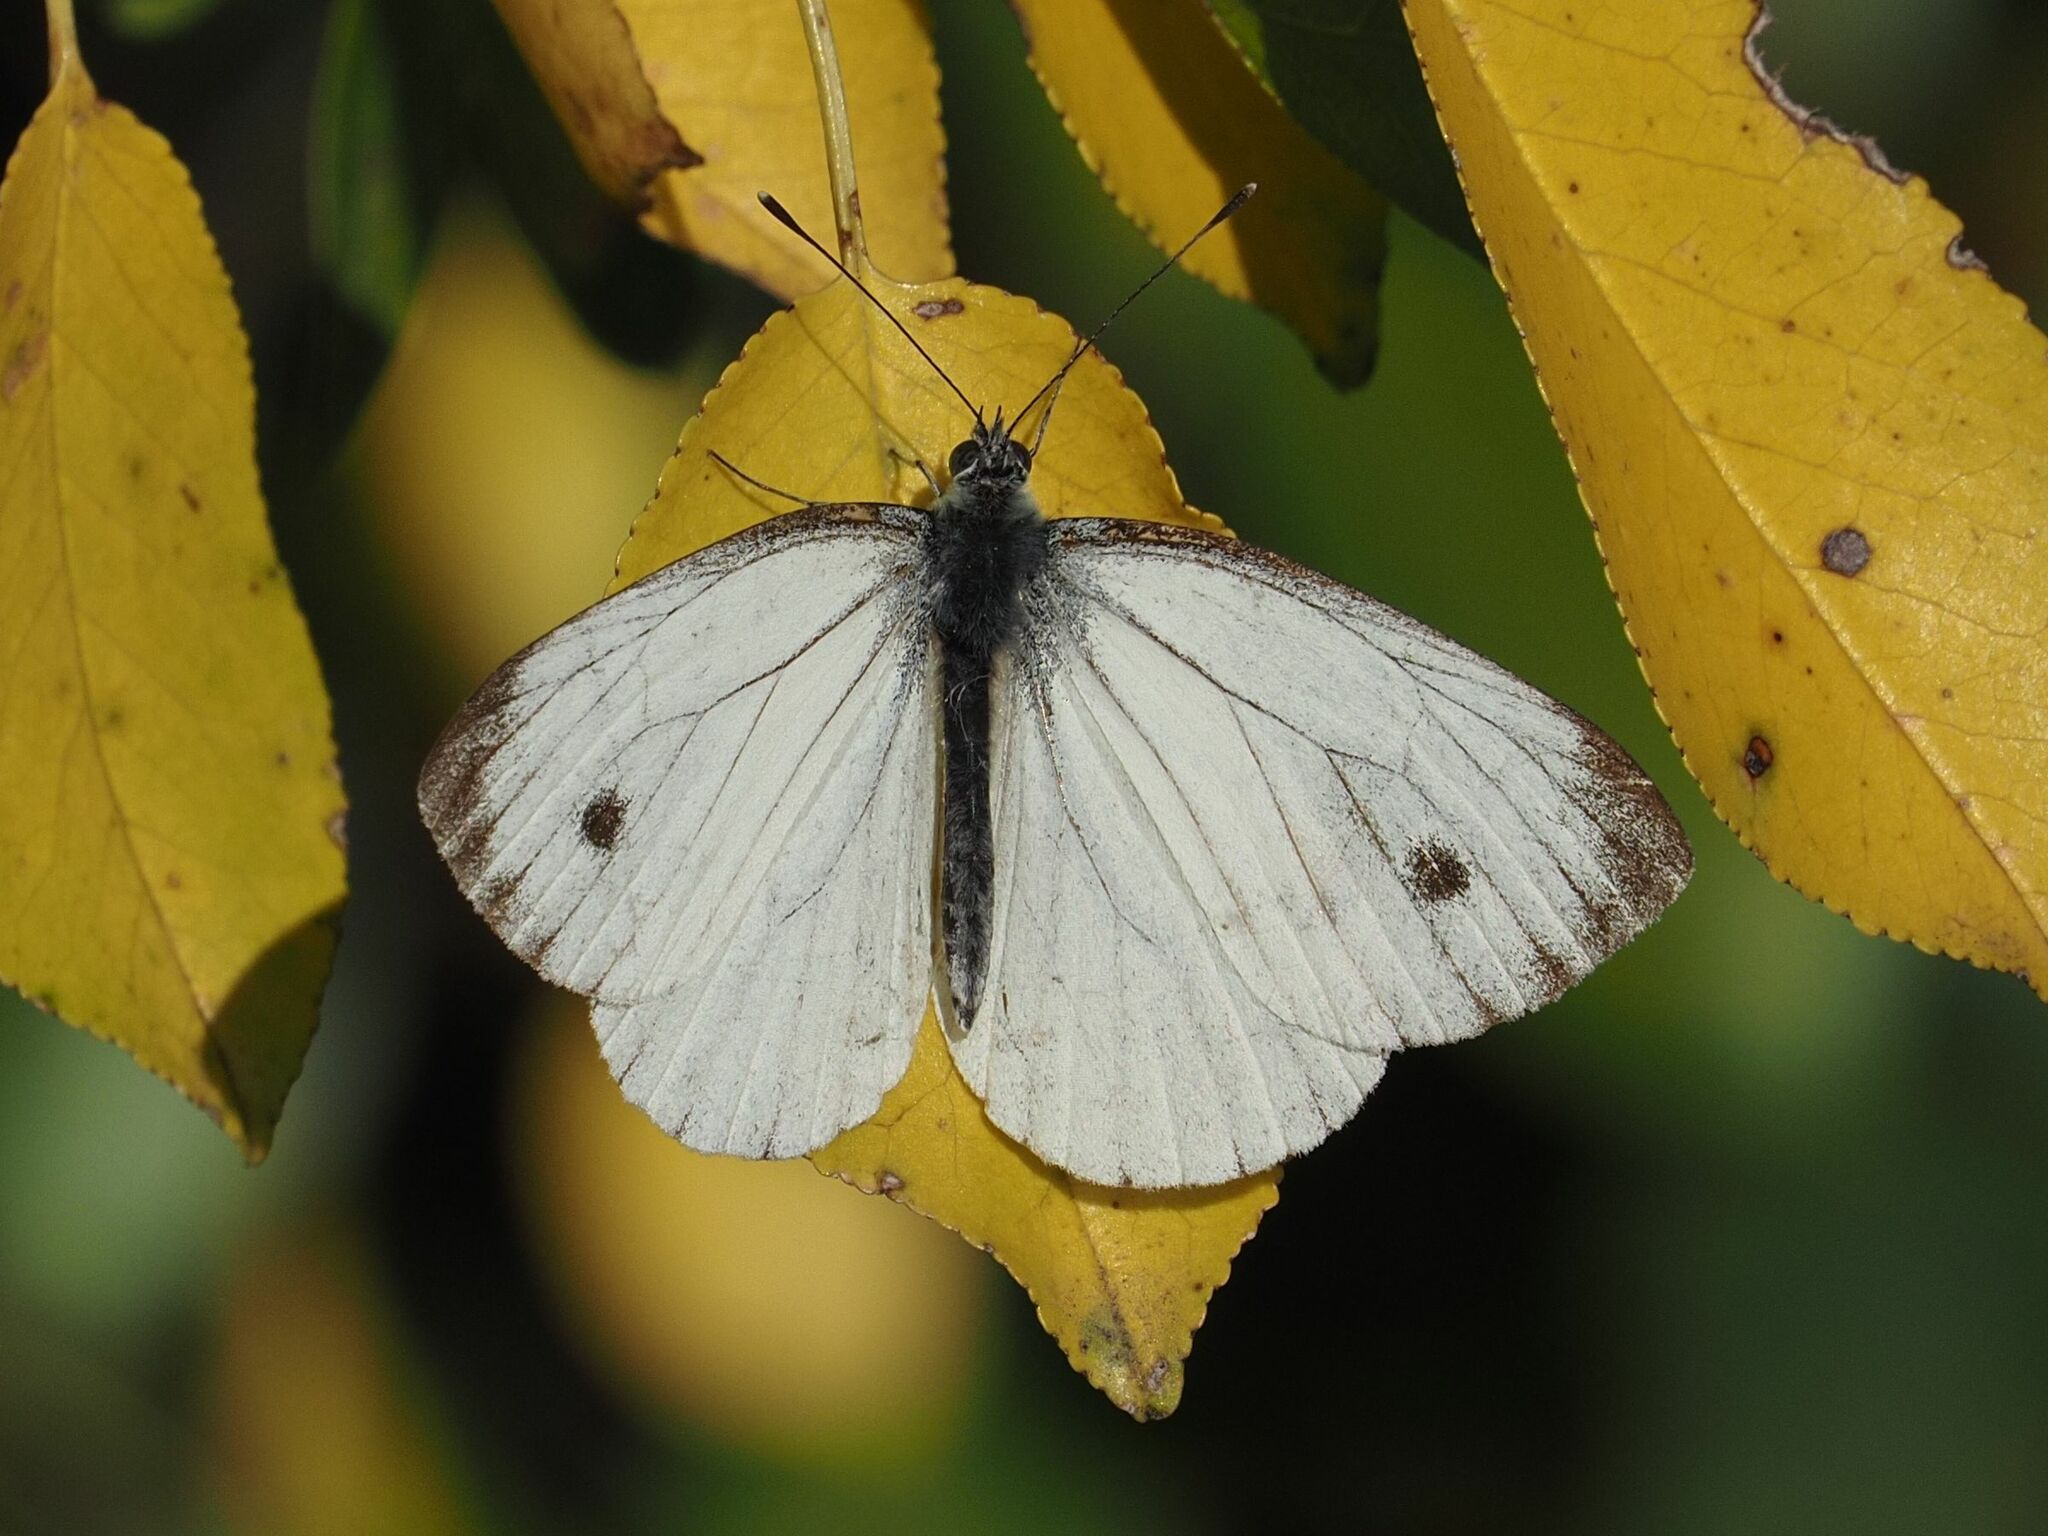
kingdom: Animalia
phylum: Arthropoda
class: Insecta
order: Lepidoptera
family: Pieridae
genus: Pieris
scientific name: Pieris napi
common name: Green-veined white
